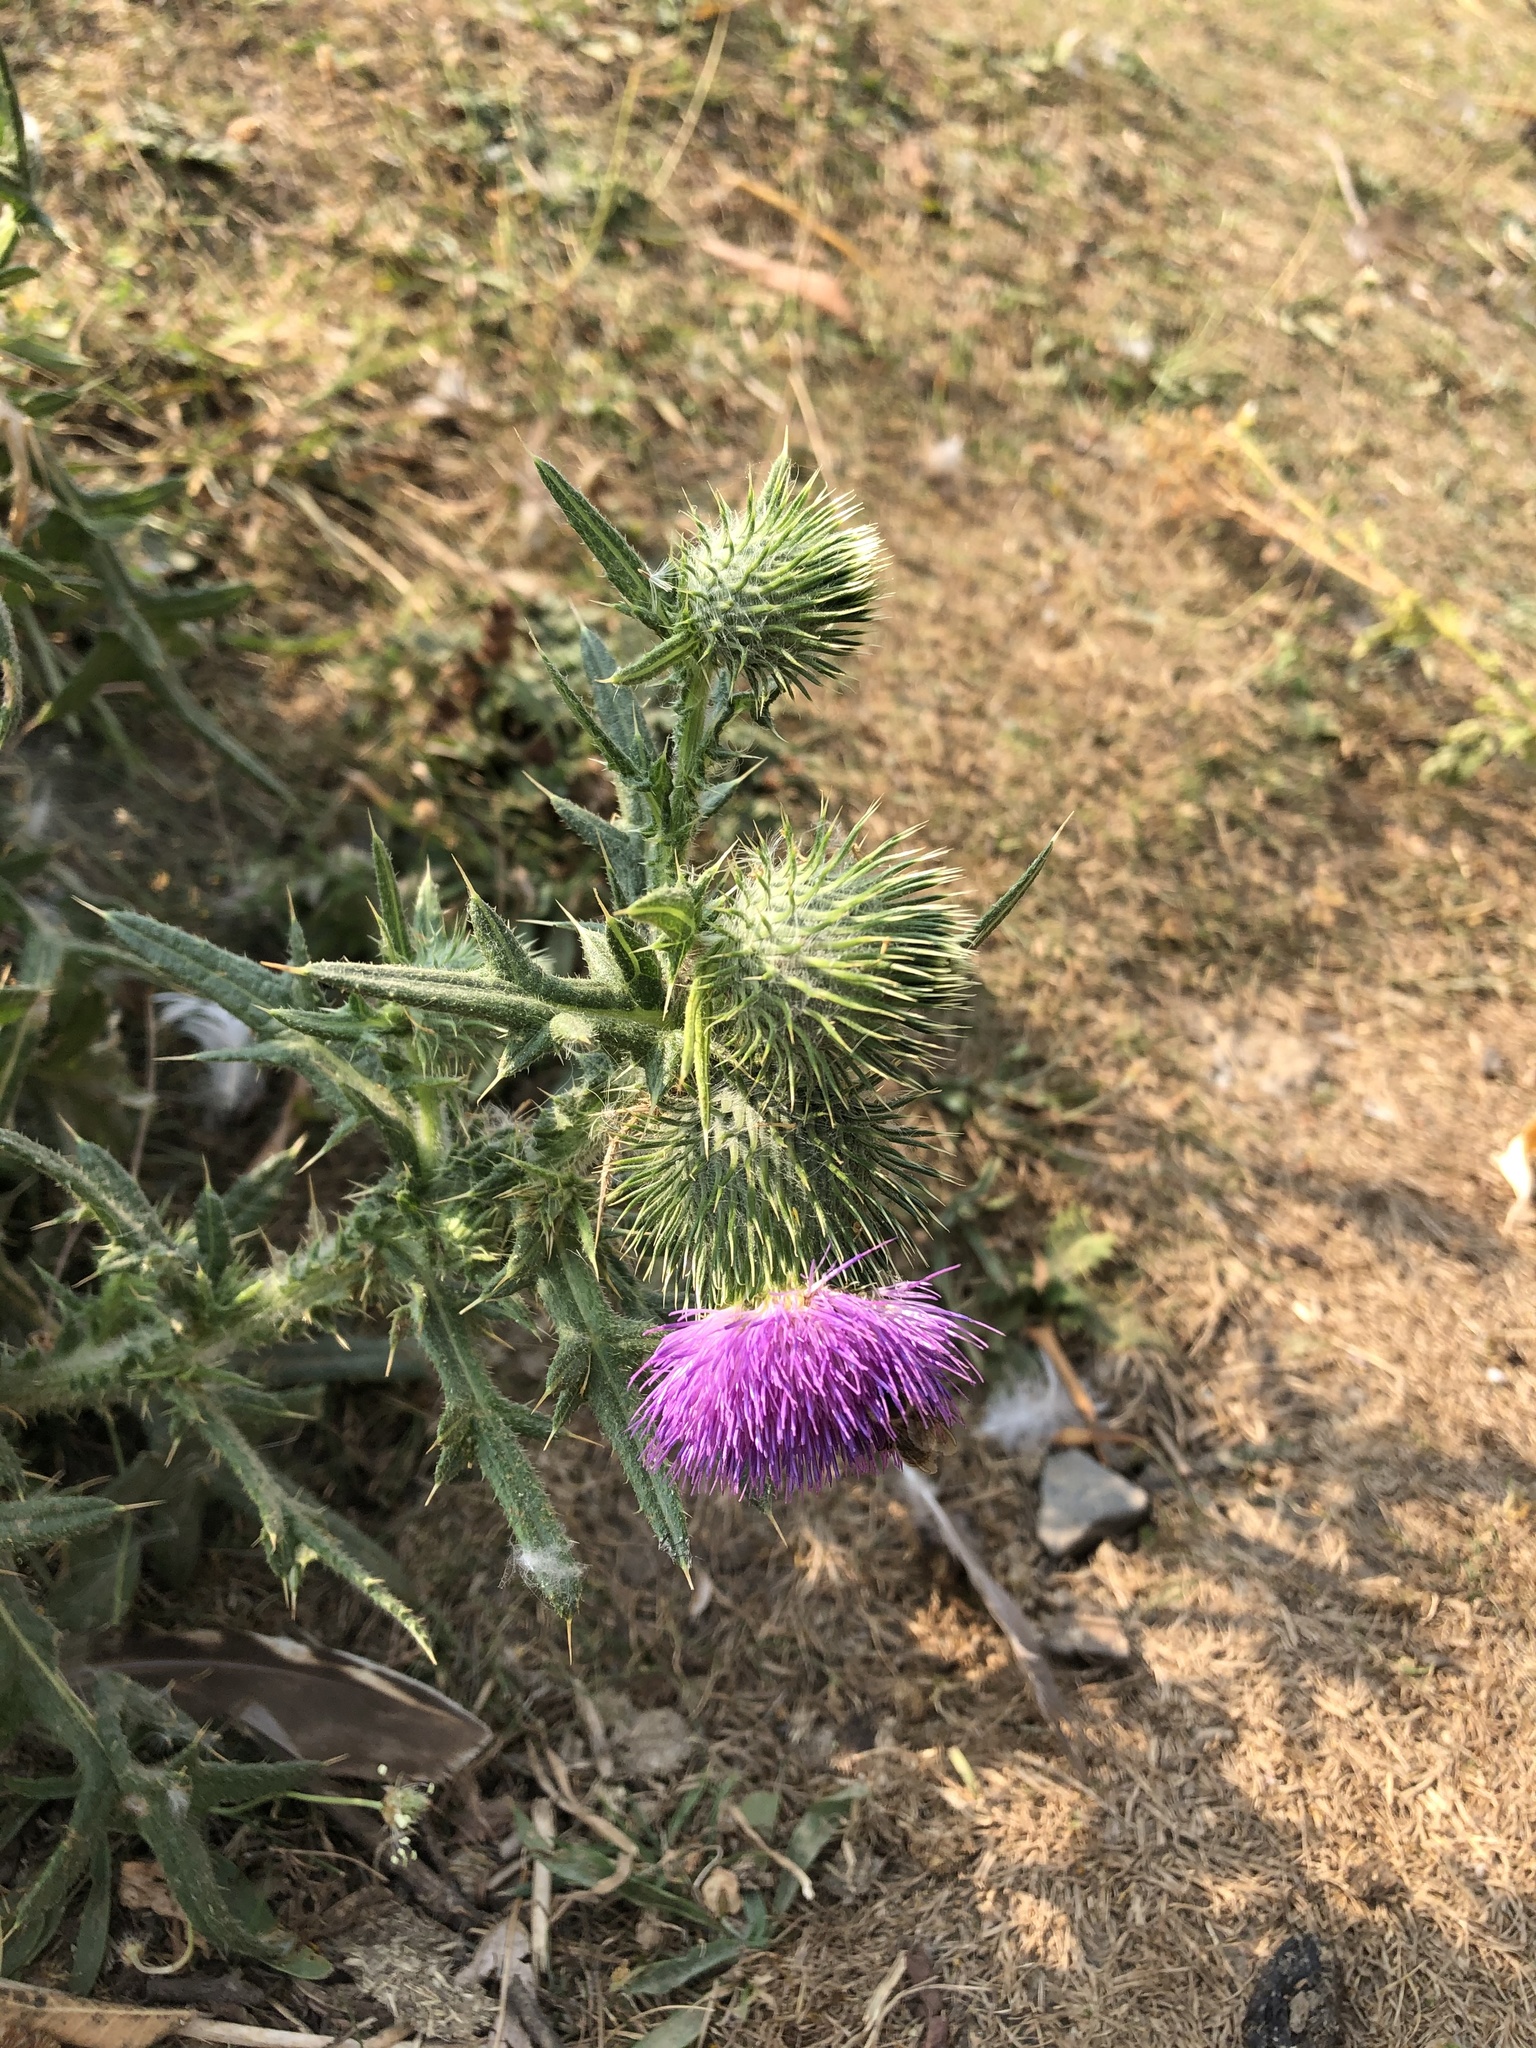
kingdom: Plantae
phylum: Tracheophyta
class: Magnoliopsida
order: Asterales
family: Asteraceae
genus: Cirsium
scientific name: Cirsium vulgare
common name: Bull thistle
